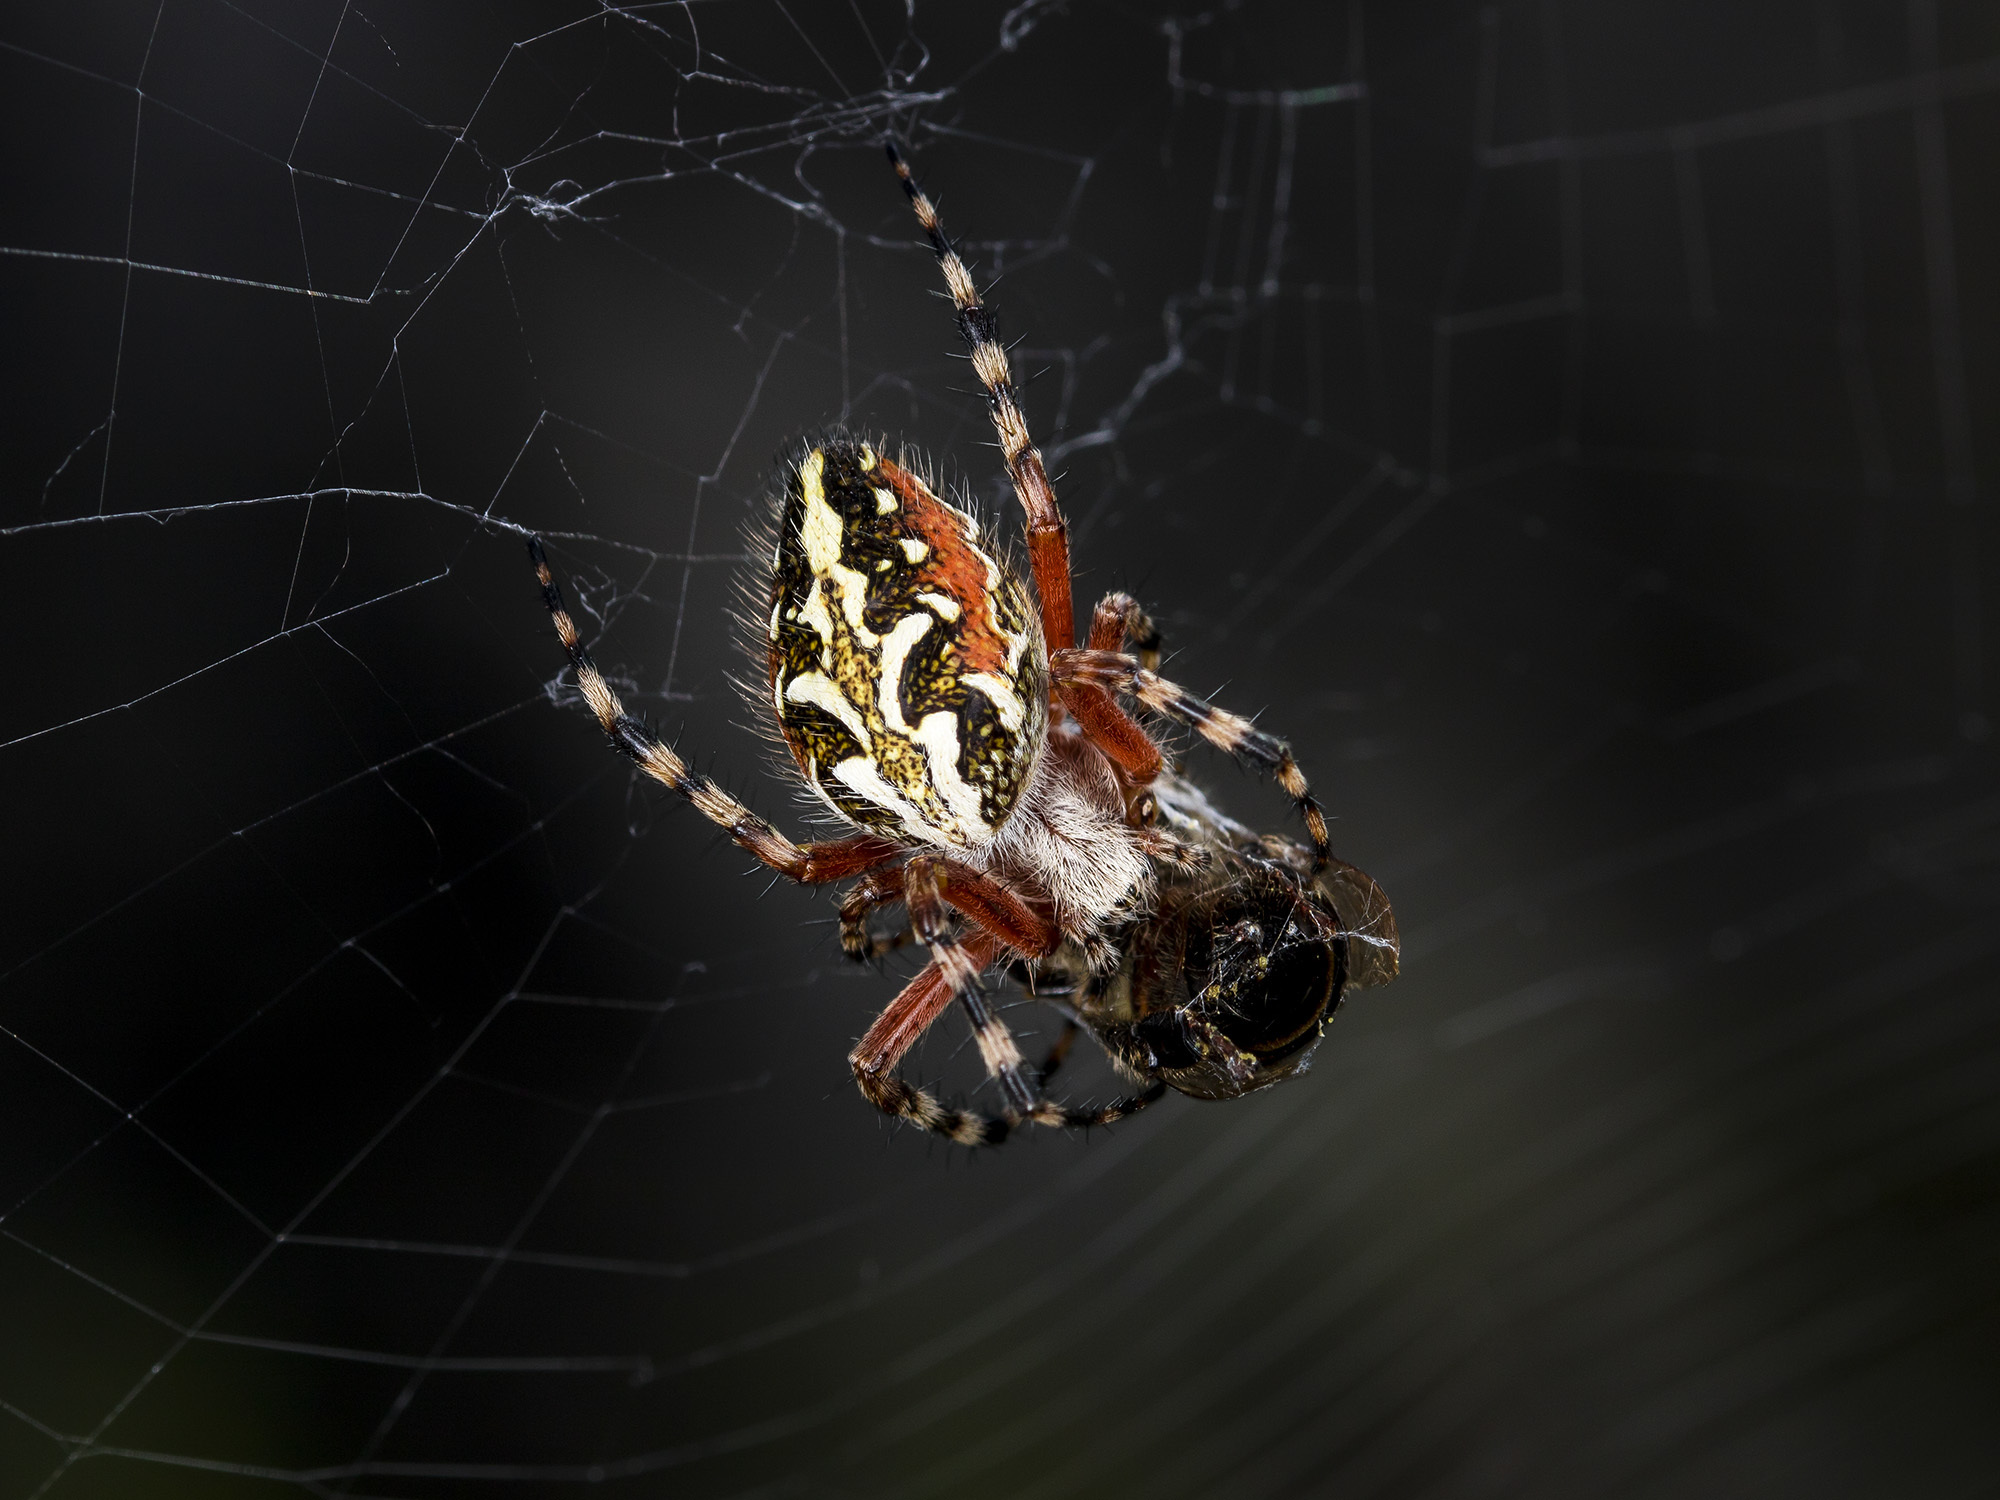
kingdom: Animalia
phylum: Arthropoda
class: Arachnida
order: Araneae
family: Araneidae
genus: Aculepeira
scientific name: Aculepeira packardi
